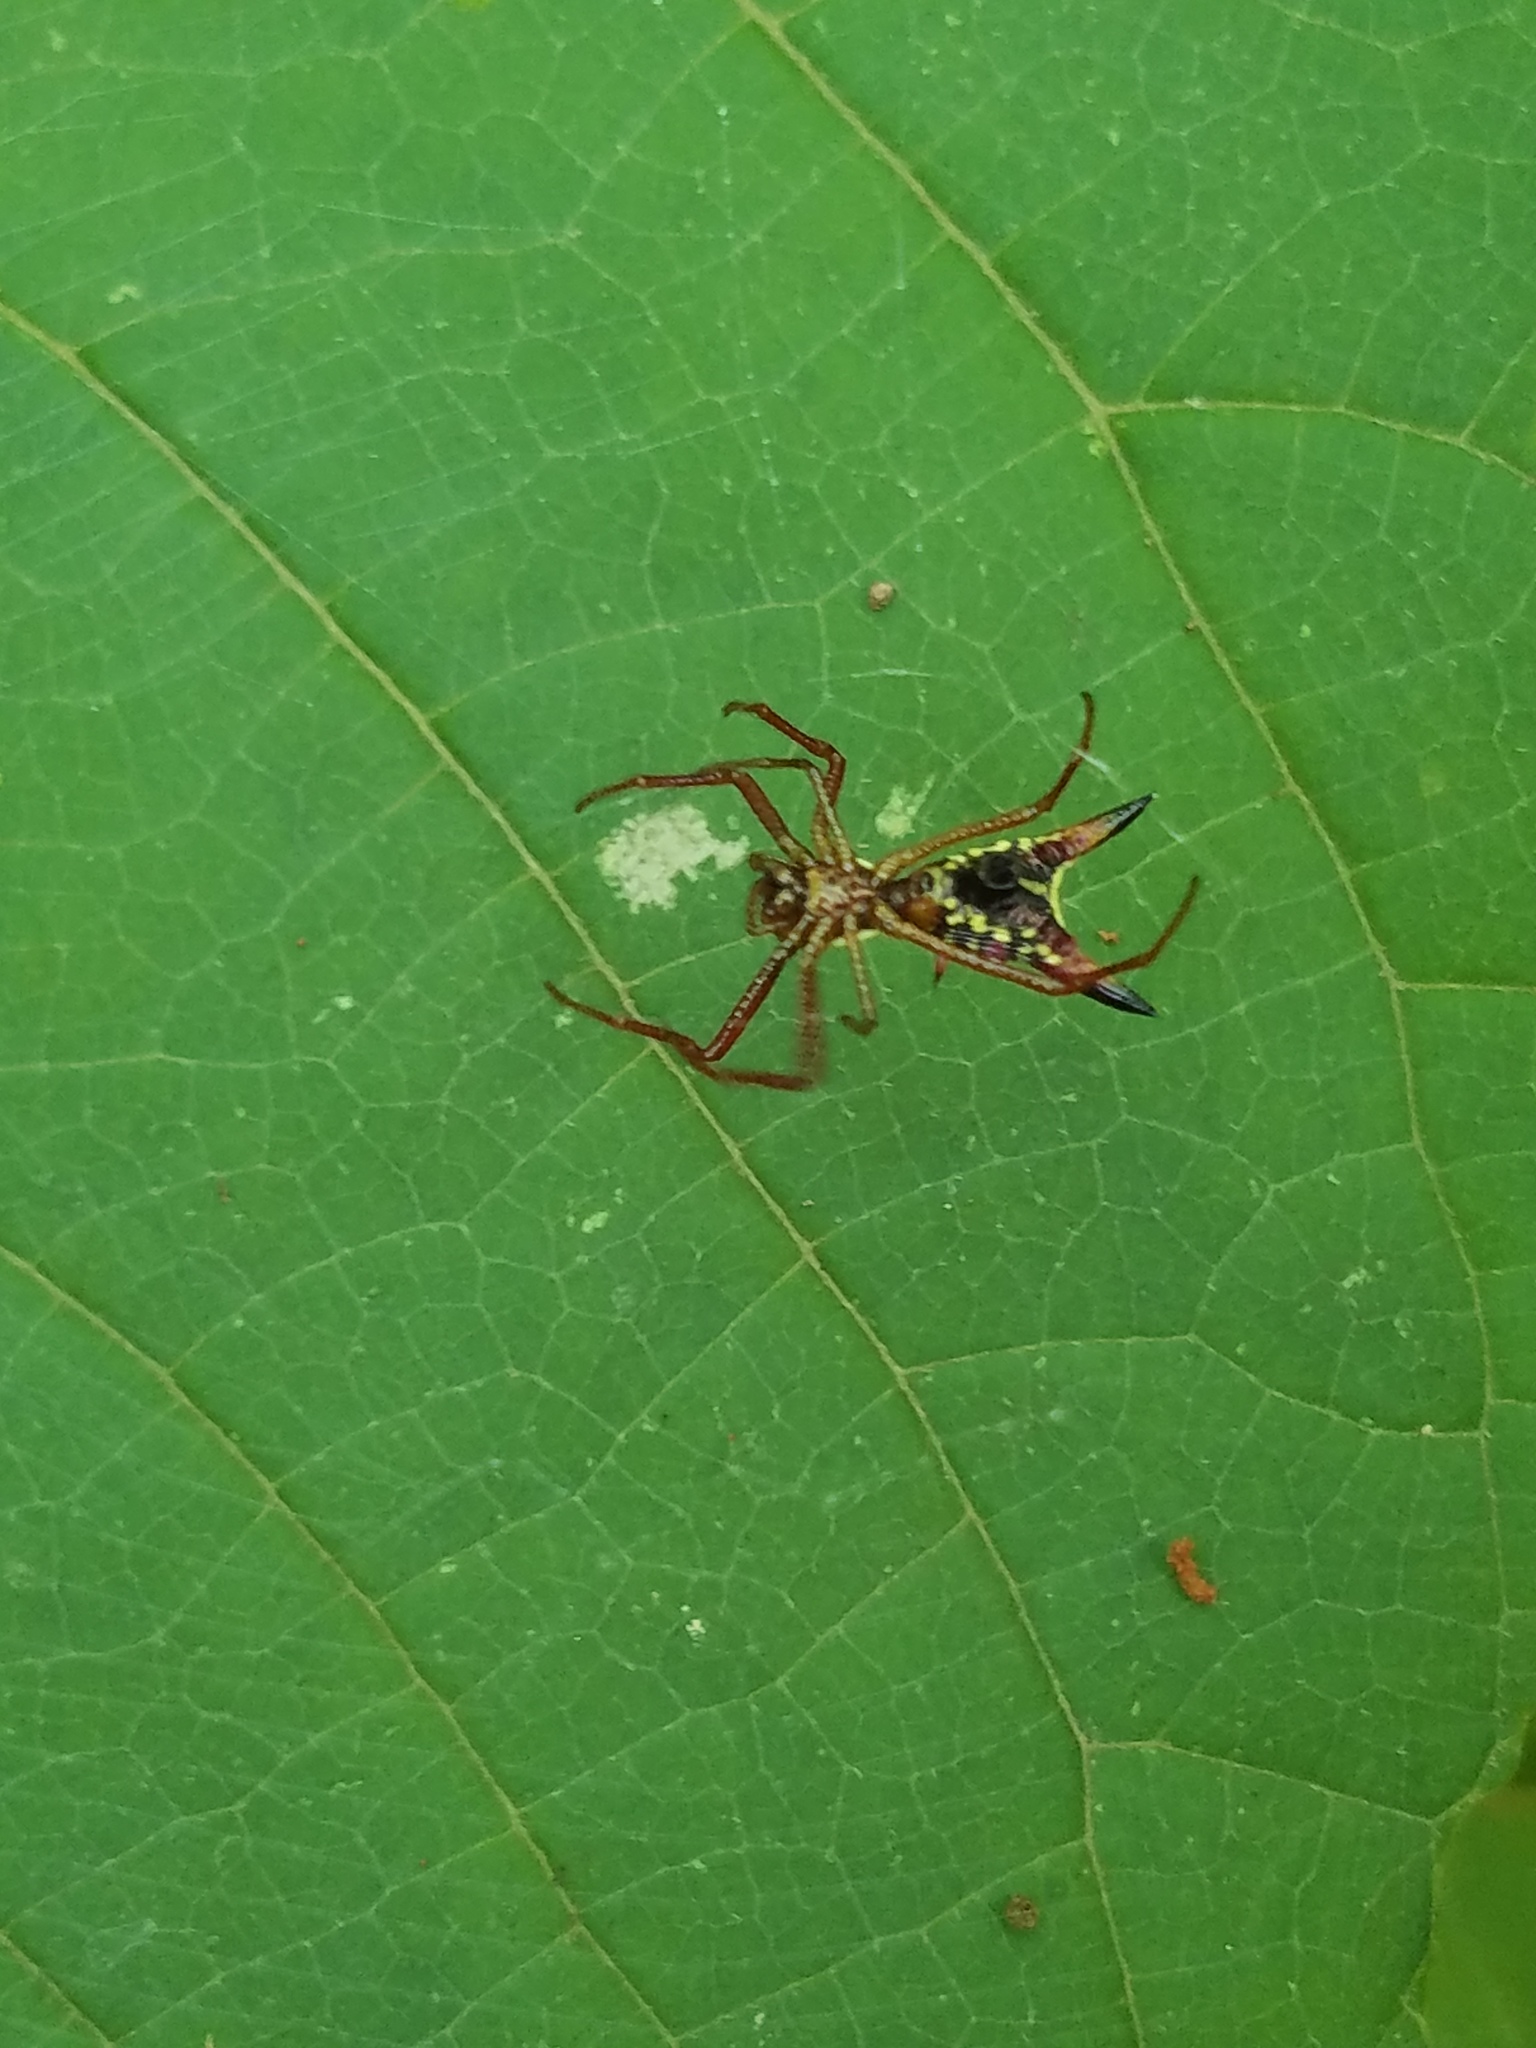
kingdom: Animalia
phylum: Arthropoda
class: Arachnida
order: Araneae
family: Araneidae
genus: Micrathena
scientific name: Micrathena sagittata
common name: Orb weavers
